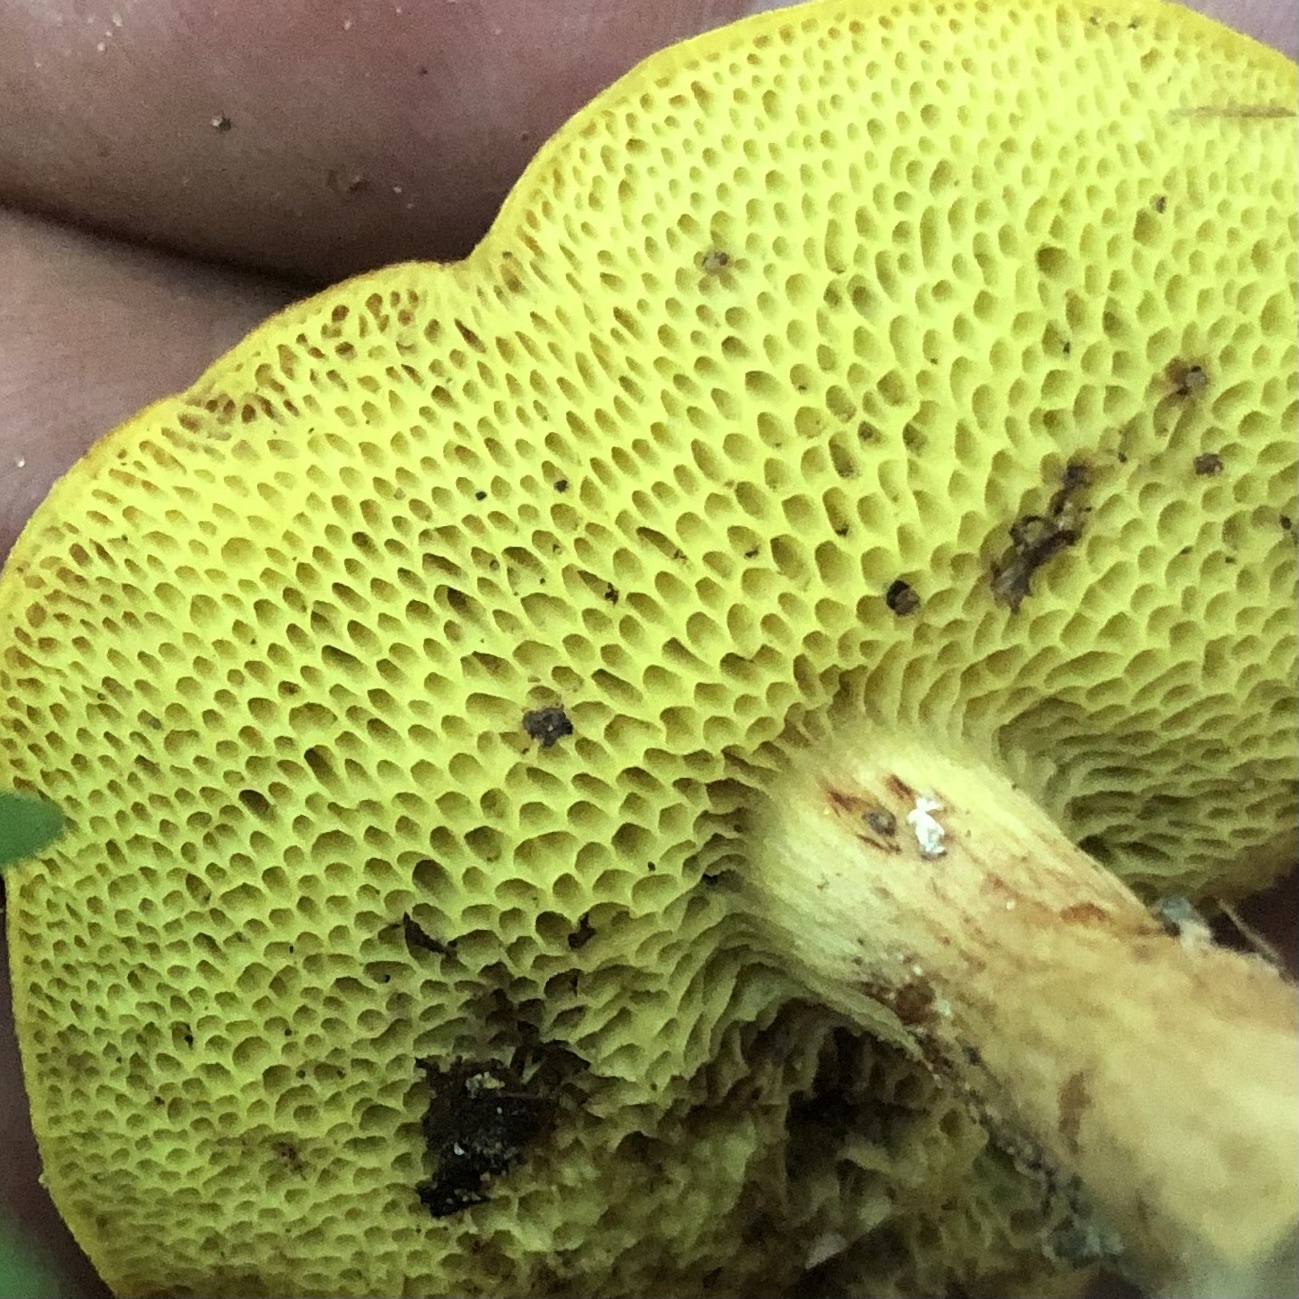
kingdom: Fungi
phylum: Basidiomycota
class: Agaricomycetes
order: Boletales
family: Boletaceae
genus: Aureoboletus
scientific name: Aureoboletus auriporus
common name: Sour gold-pored bolete
